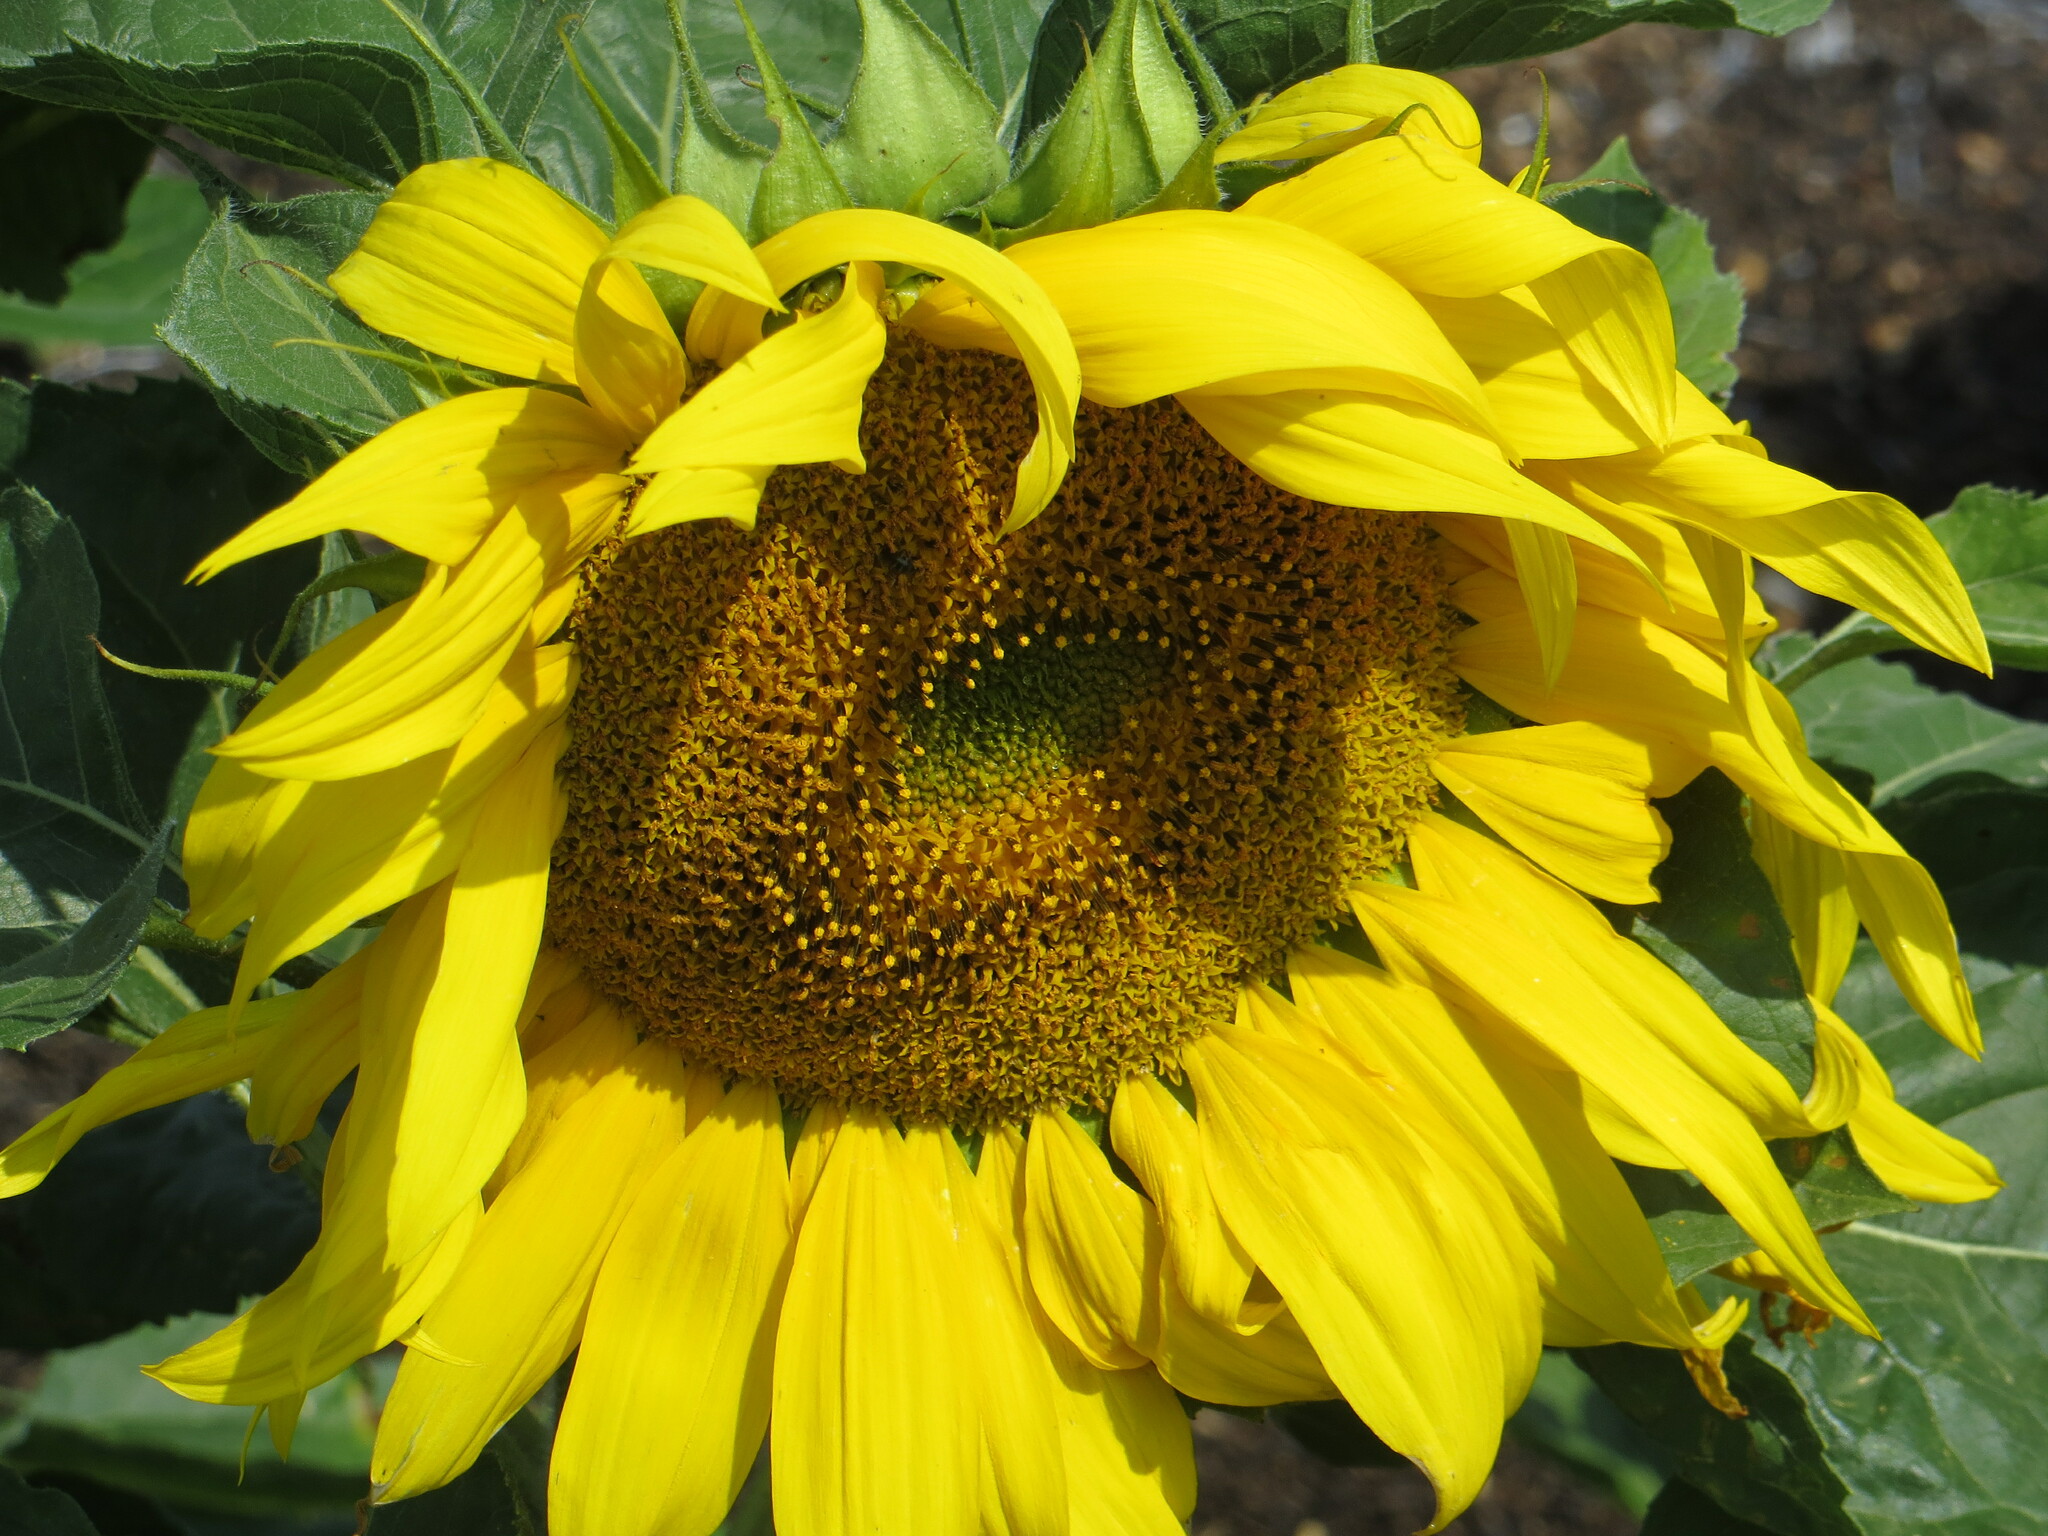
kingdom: Plantae
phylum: Tracheophyta
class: Magnoliopsida
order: Asterales
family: Asteraceae
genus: Helianthus
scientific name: Helianthus annuus
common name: Sunflower
